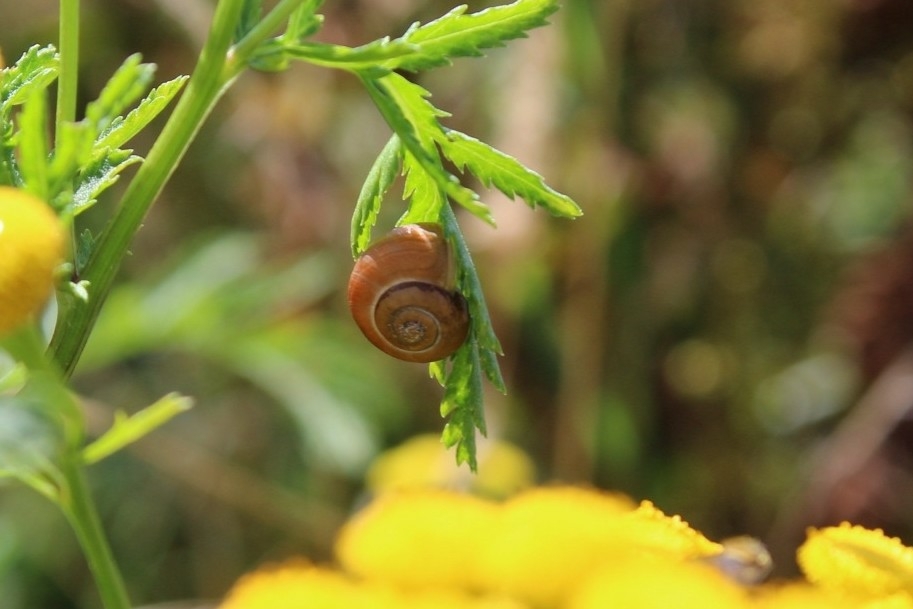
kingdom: Animalia
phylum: Mollusca
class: Gastropoda
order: Stylommatophora
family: Helicidae
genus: Cepaea
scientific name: Cepaea
